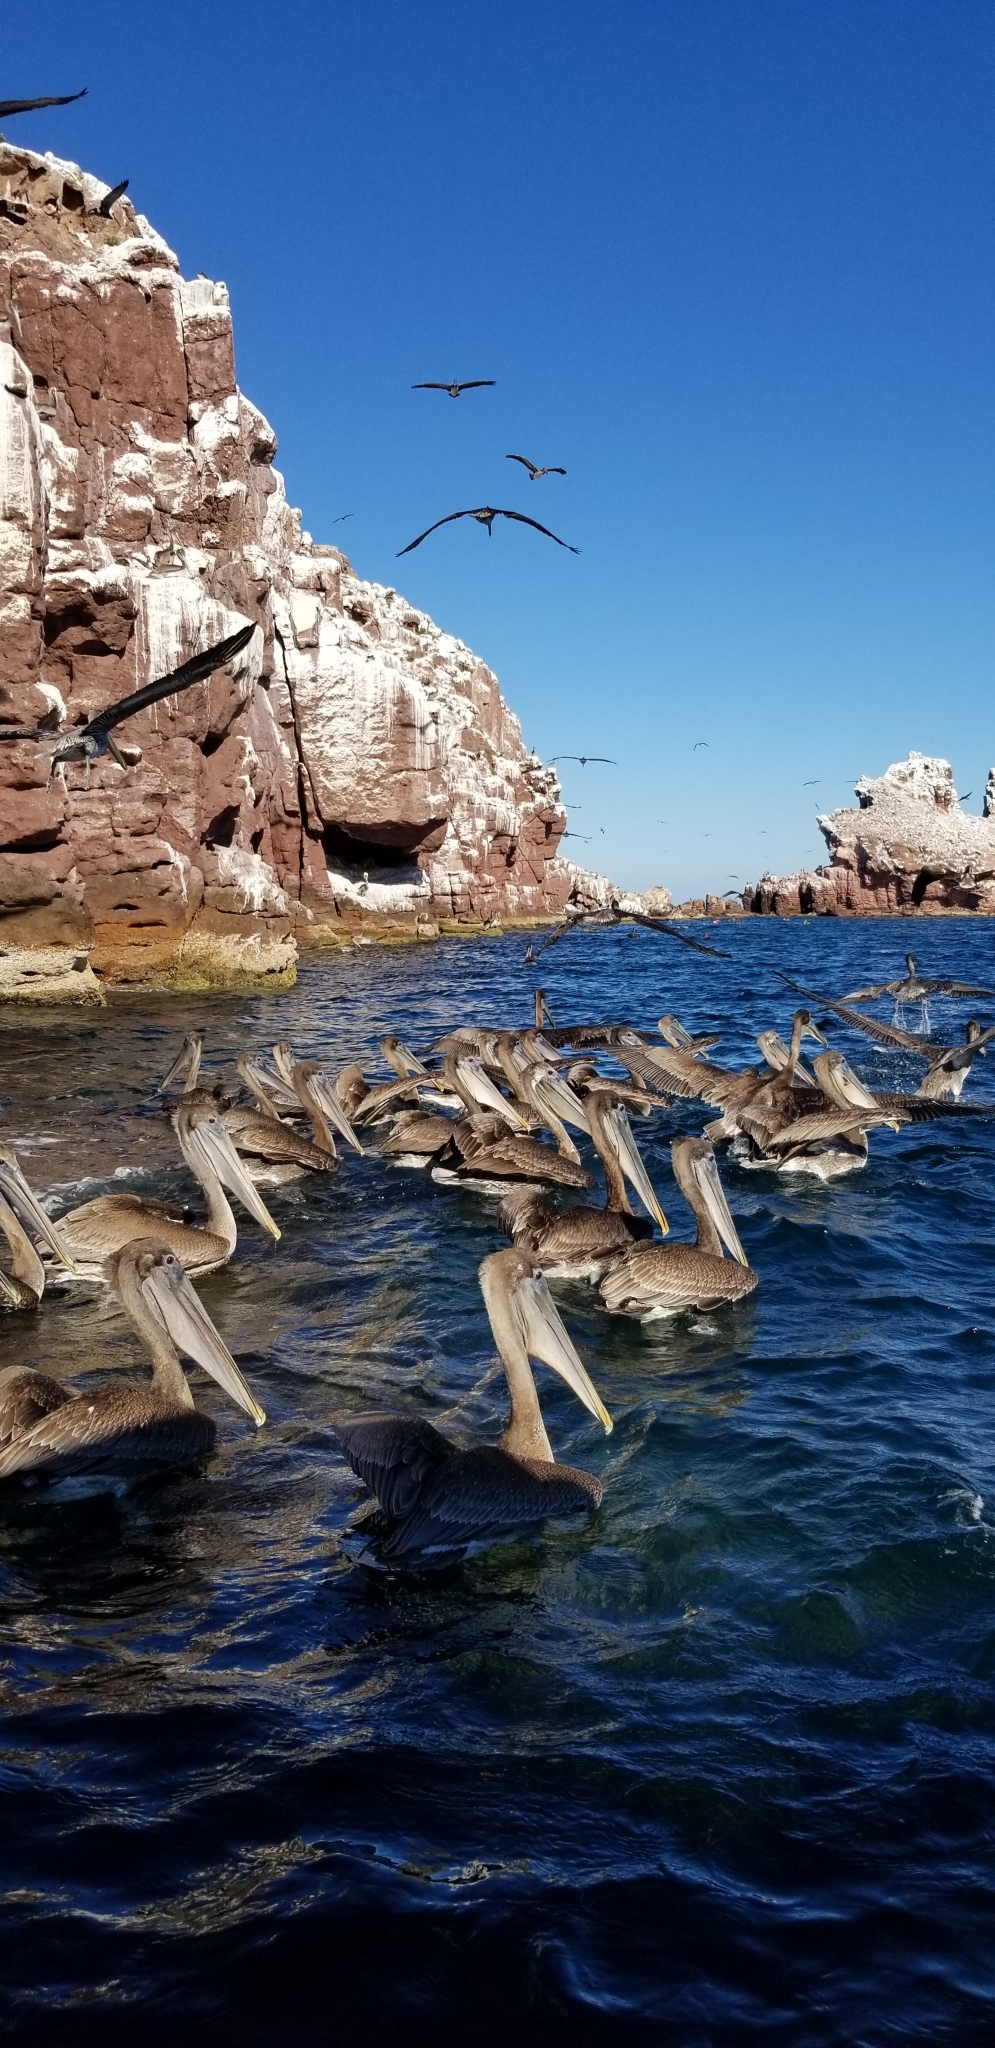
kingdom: Animalia
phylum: Chordata
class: Aves
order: Pelecaniformes
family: Pelecanidae
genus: Pelecanus
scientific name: Pelecanus occidentalis
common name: Brown pelican
